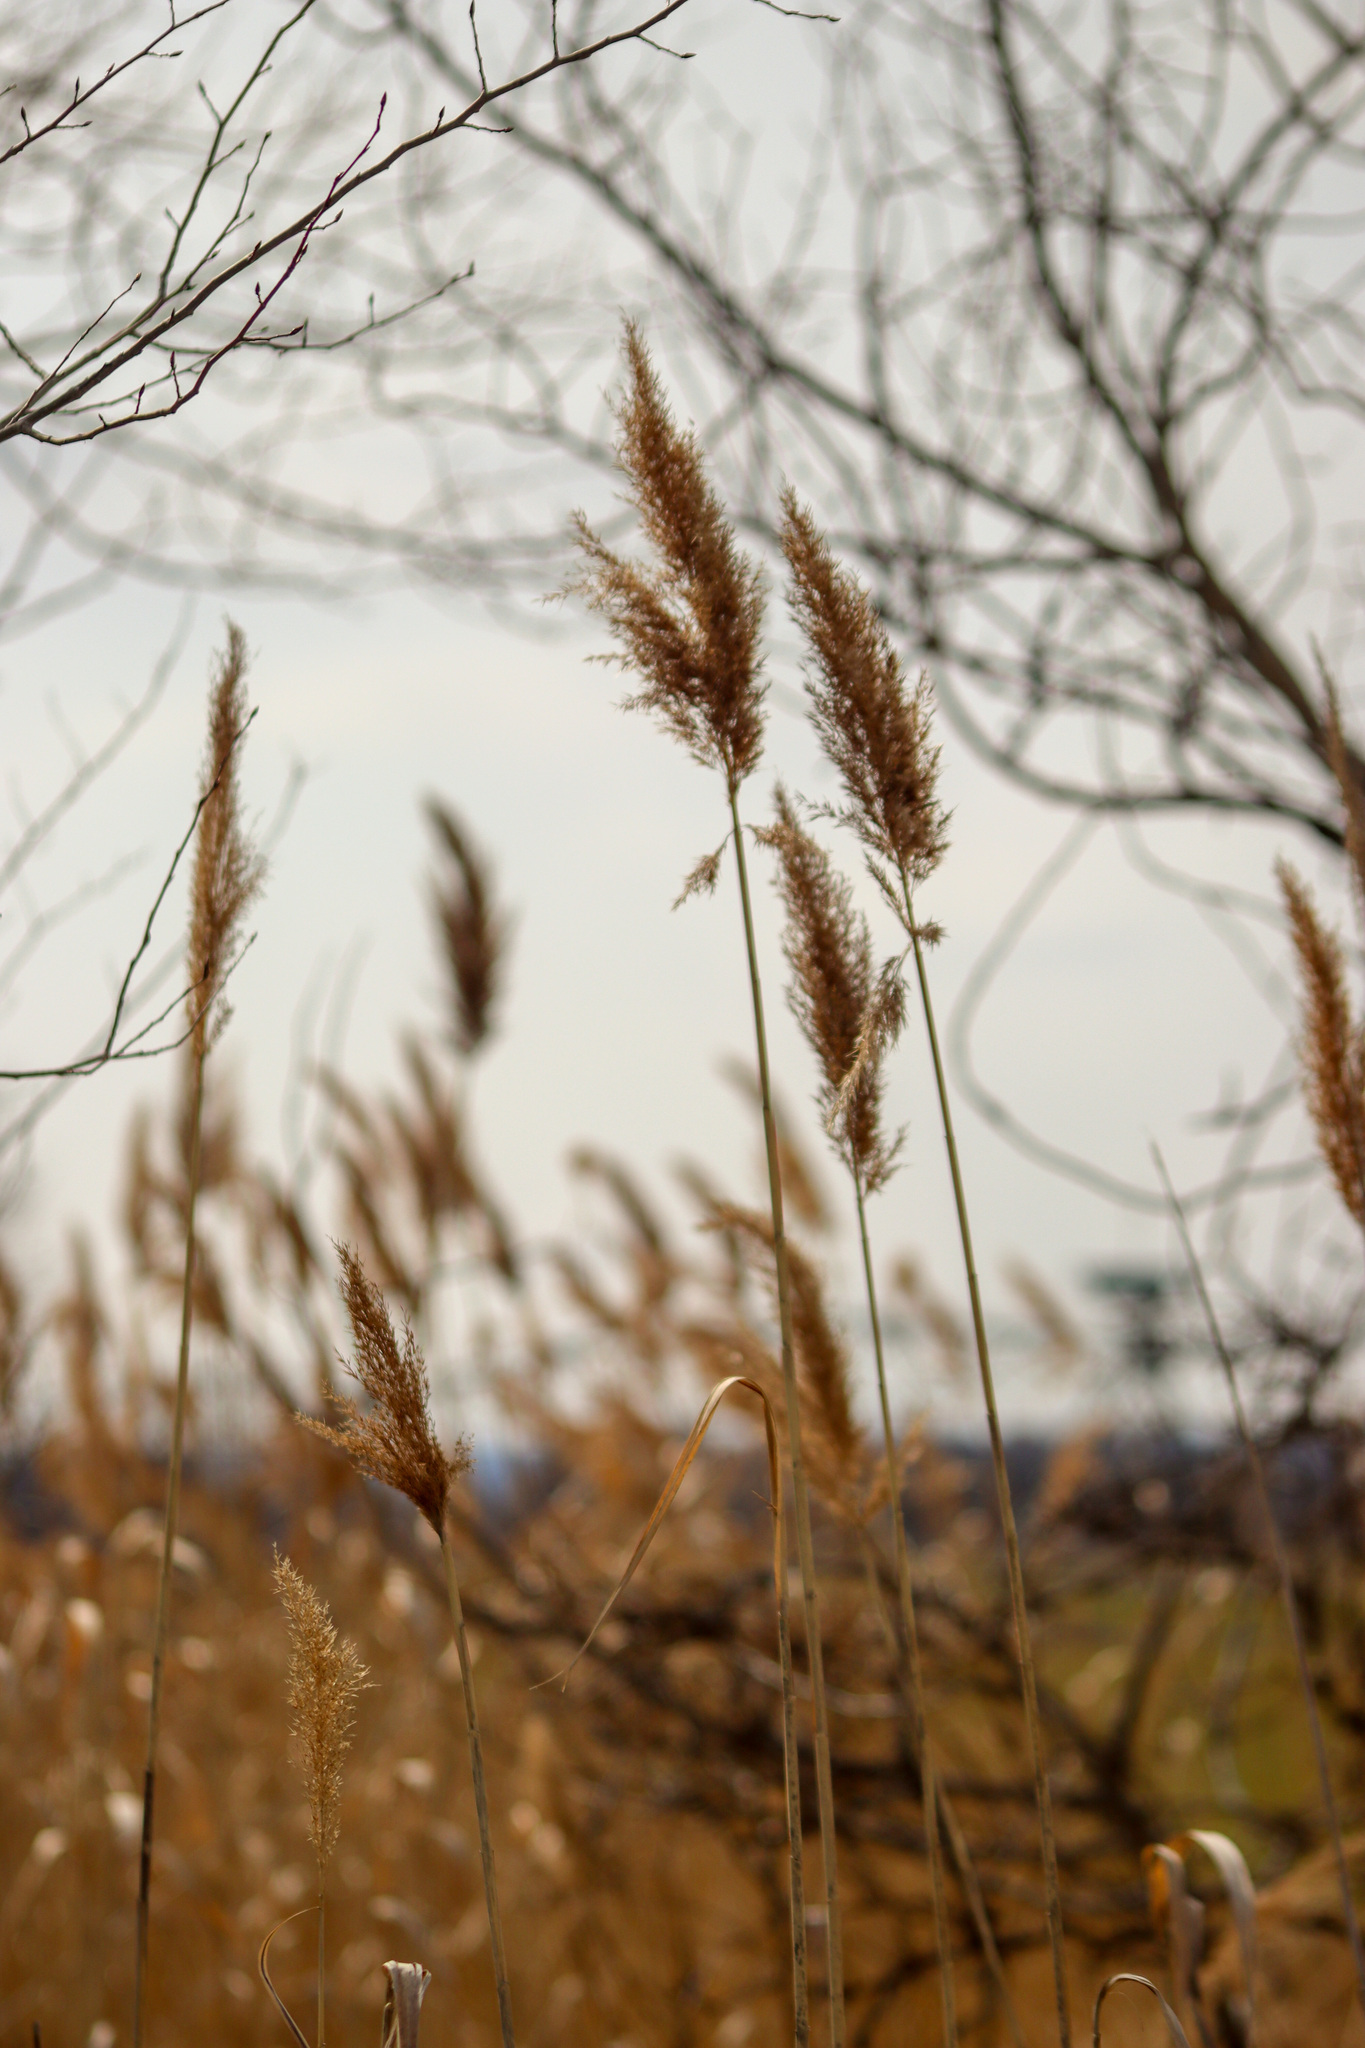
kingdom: Plantae
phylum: Tracheophyta
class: Liliopsida
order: Poales
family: Poaceae
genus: Phragmites
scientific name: Phragmites australis
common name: Common reed
